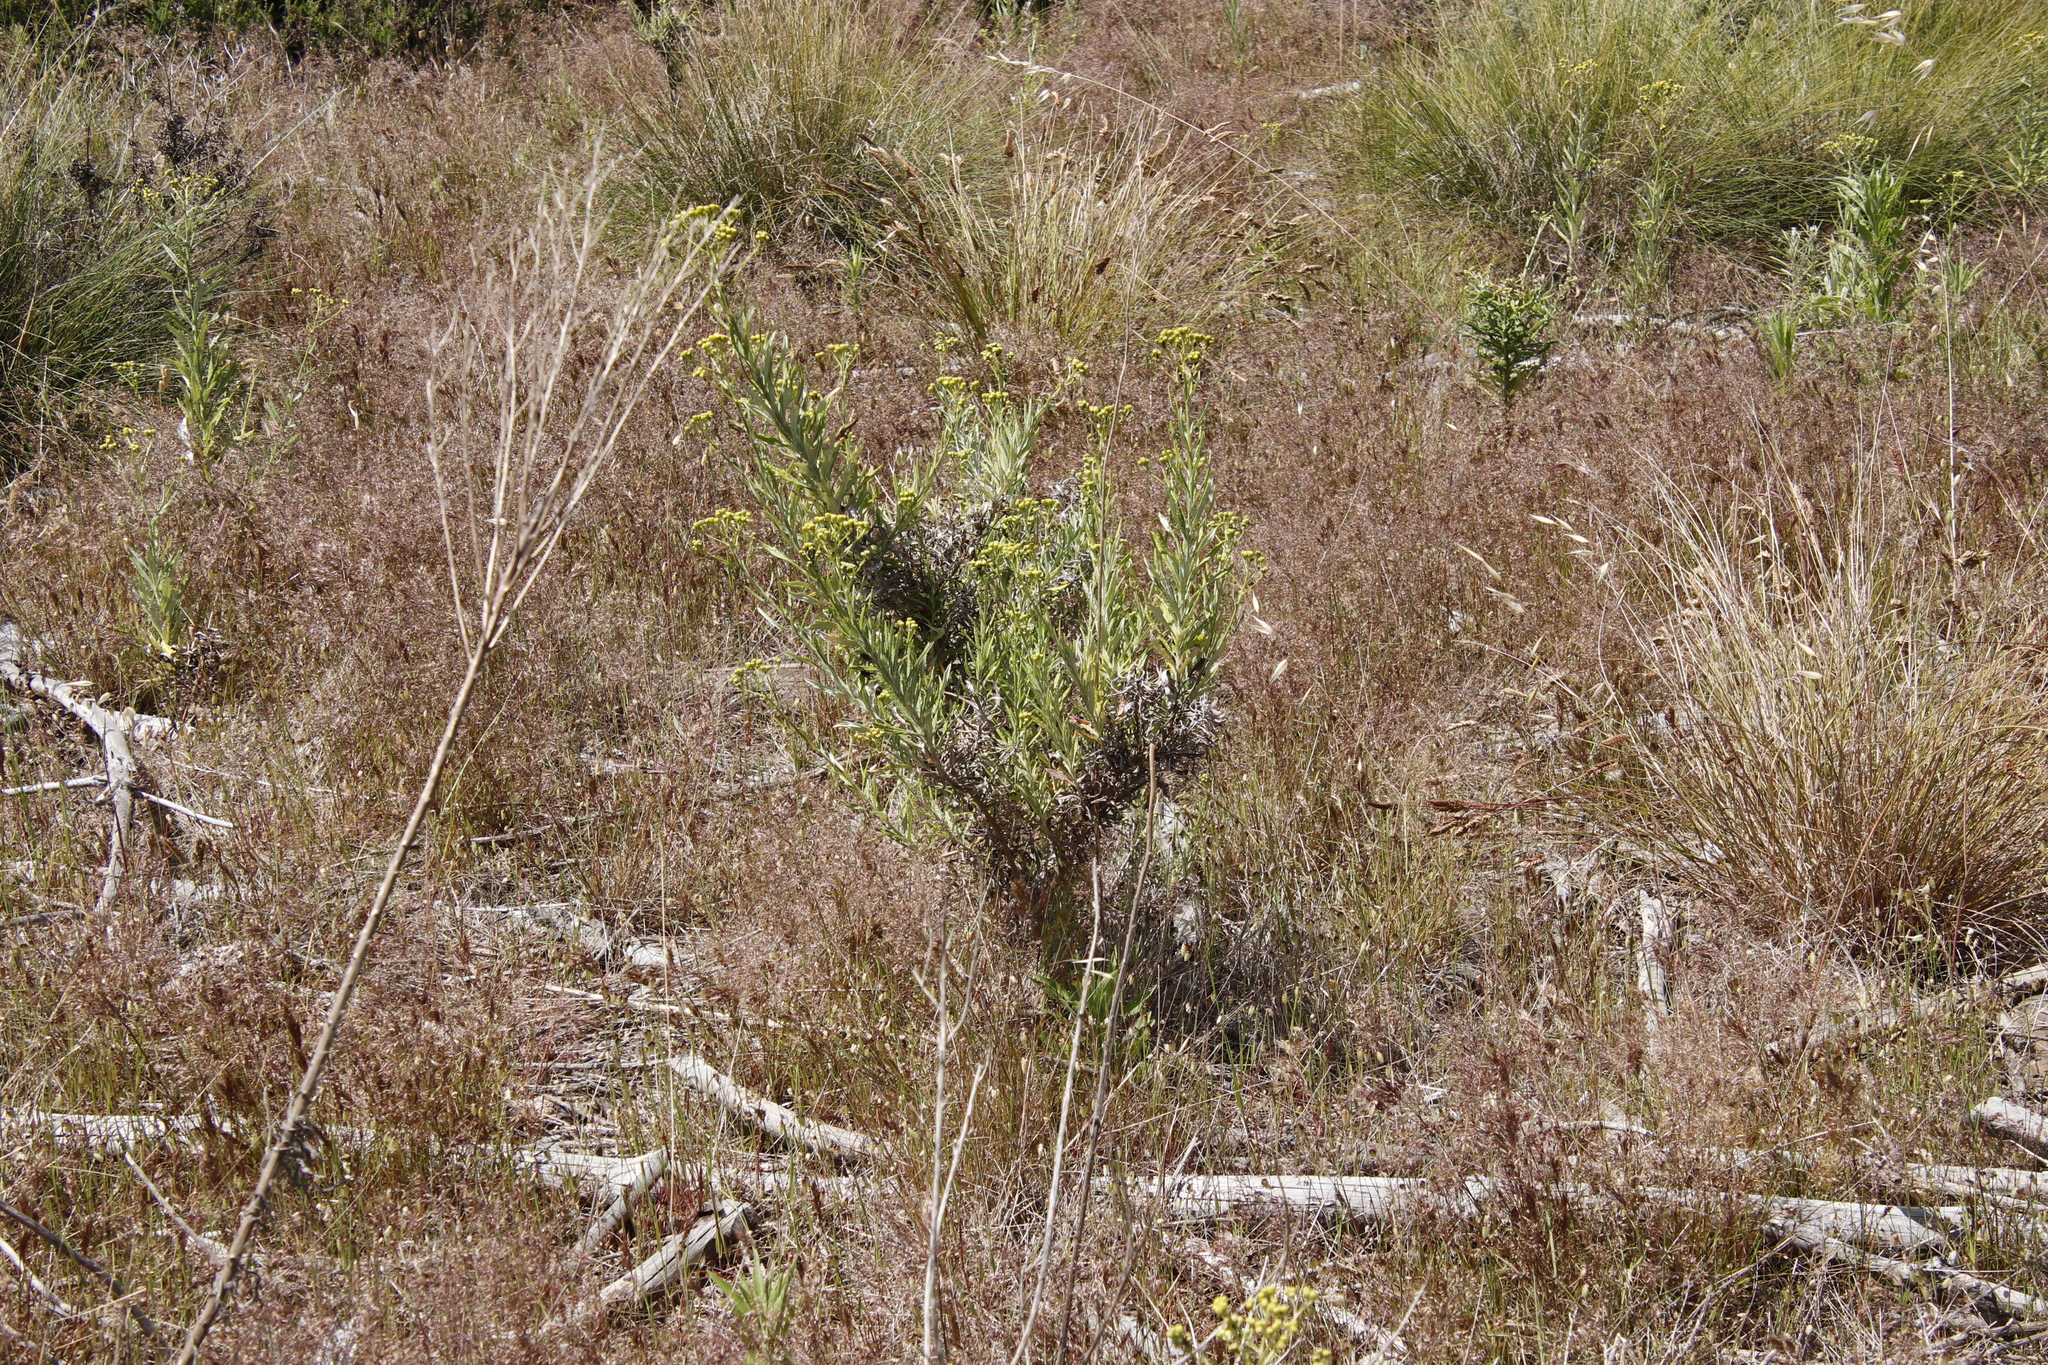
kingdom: Plantae
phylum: Tracheophyta
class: Magnoliopsida
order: Asterales
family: Asteraceae
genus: Senecio
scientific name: Senecio pterophorus
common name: Shoddy ragwort
